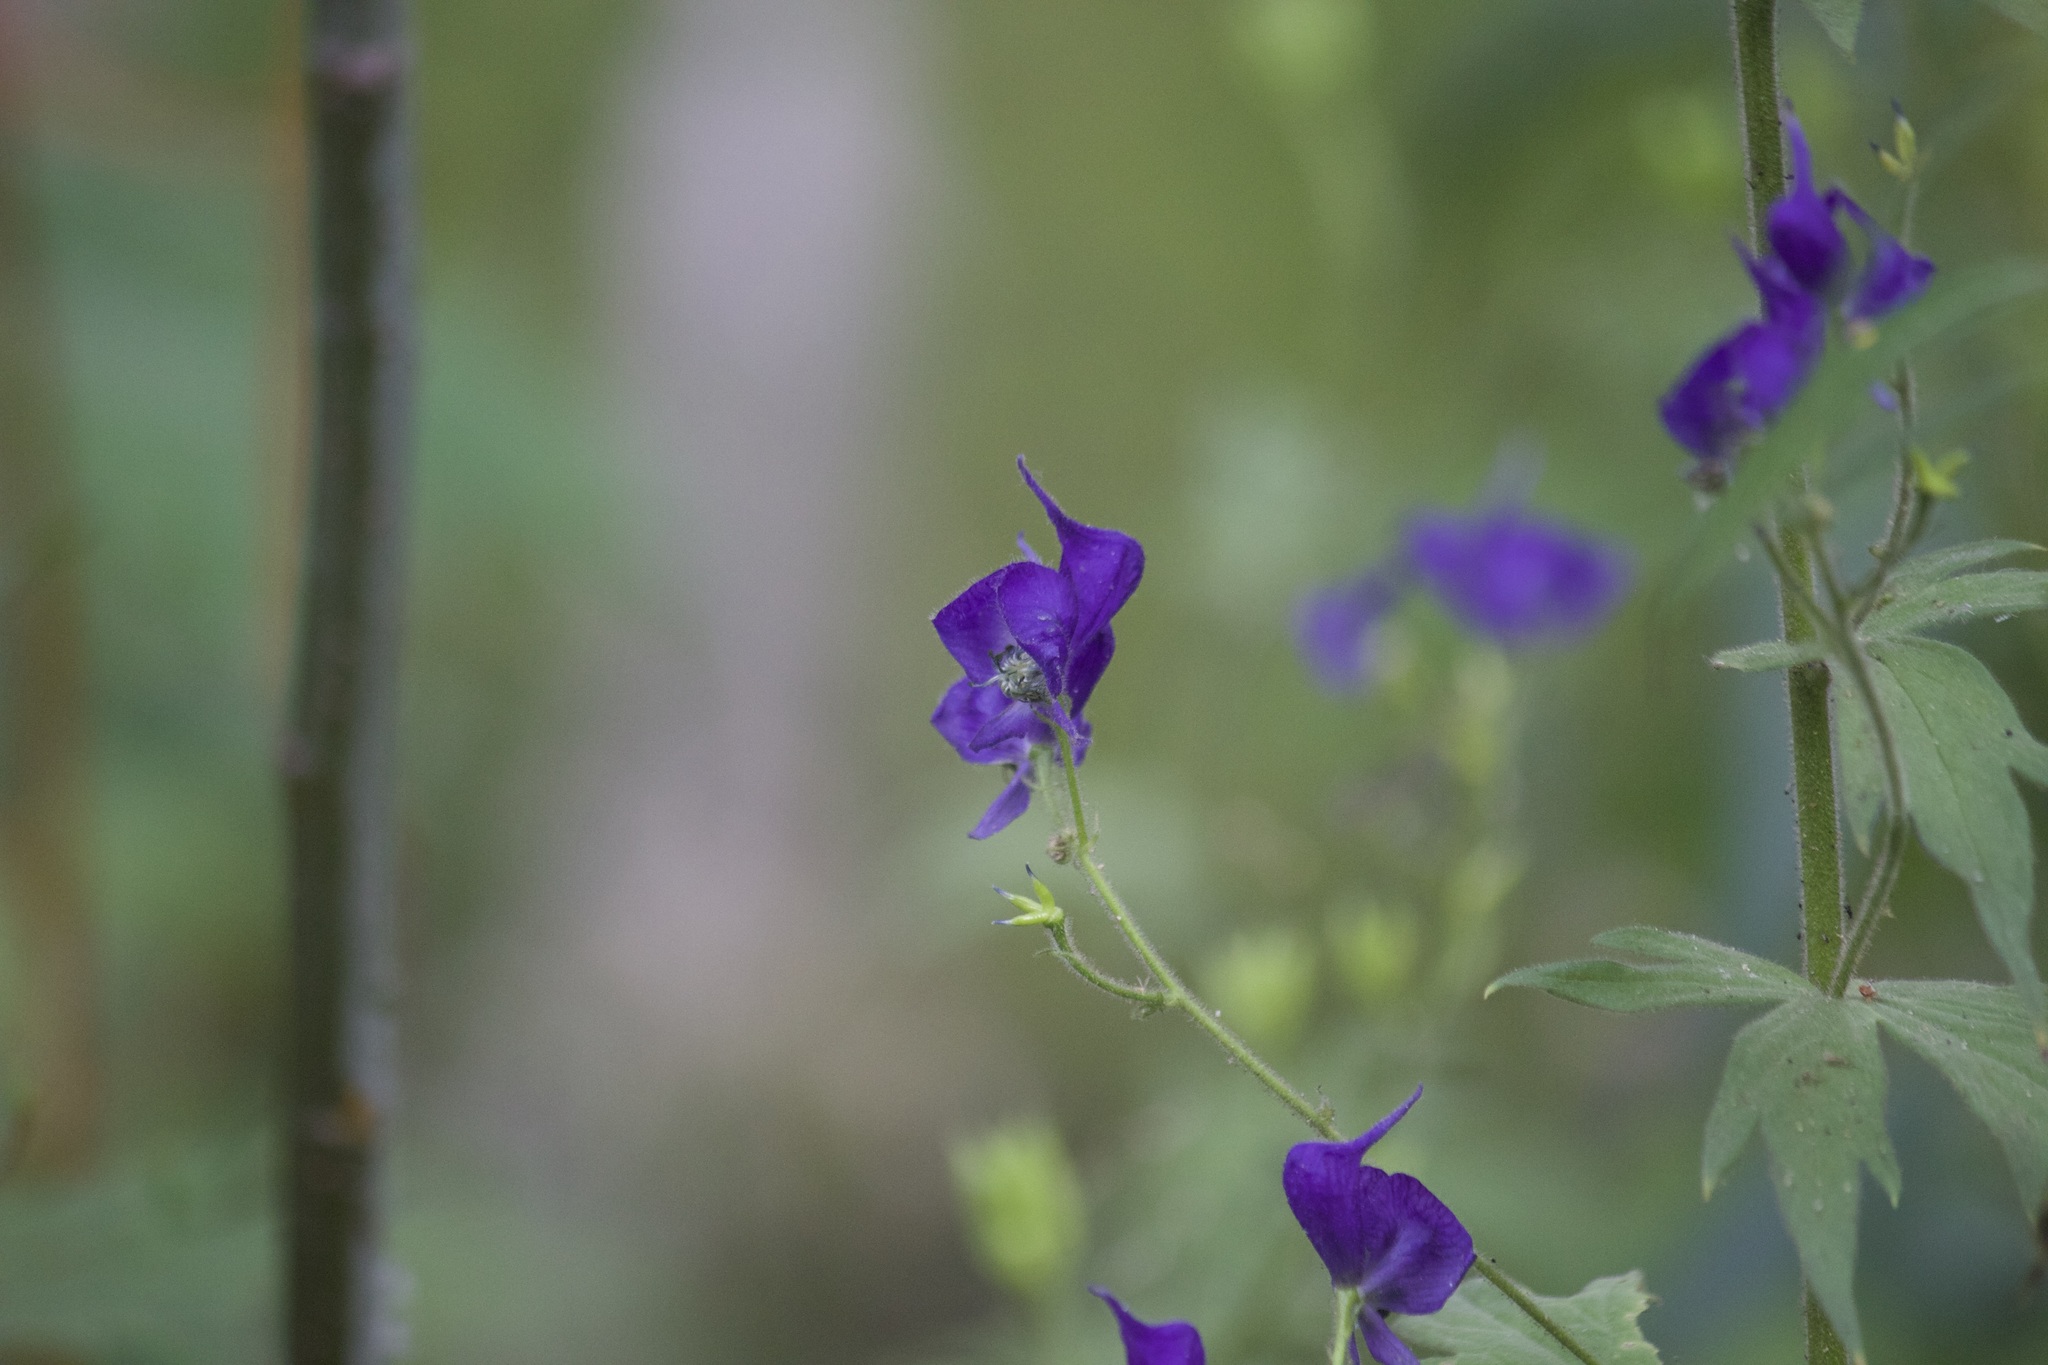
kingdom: Plantae
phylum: Tracheophyta
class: Magnoliopsida
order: Ranunculales
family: Ranunculaceae
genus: Aconitum
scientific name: Aconitum columbianum
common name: Columbia aconite
